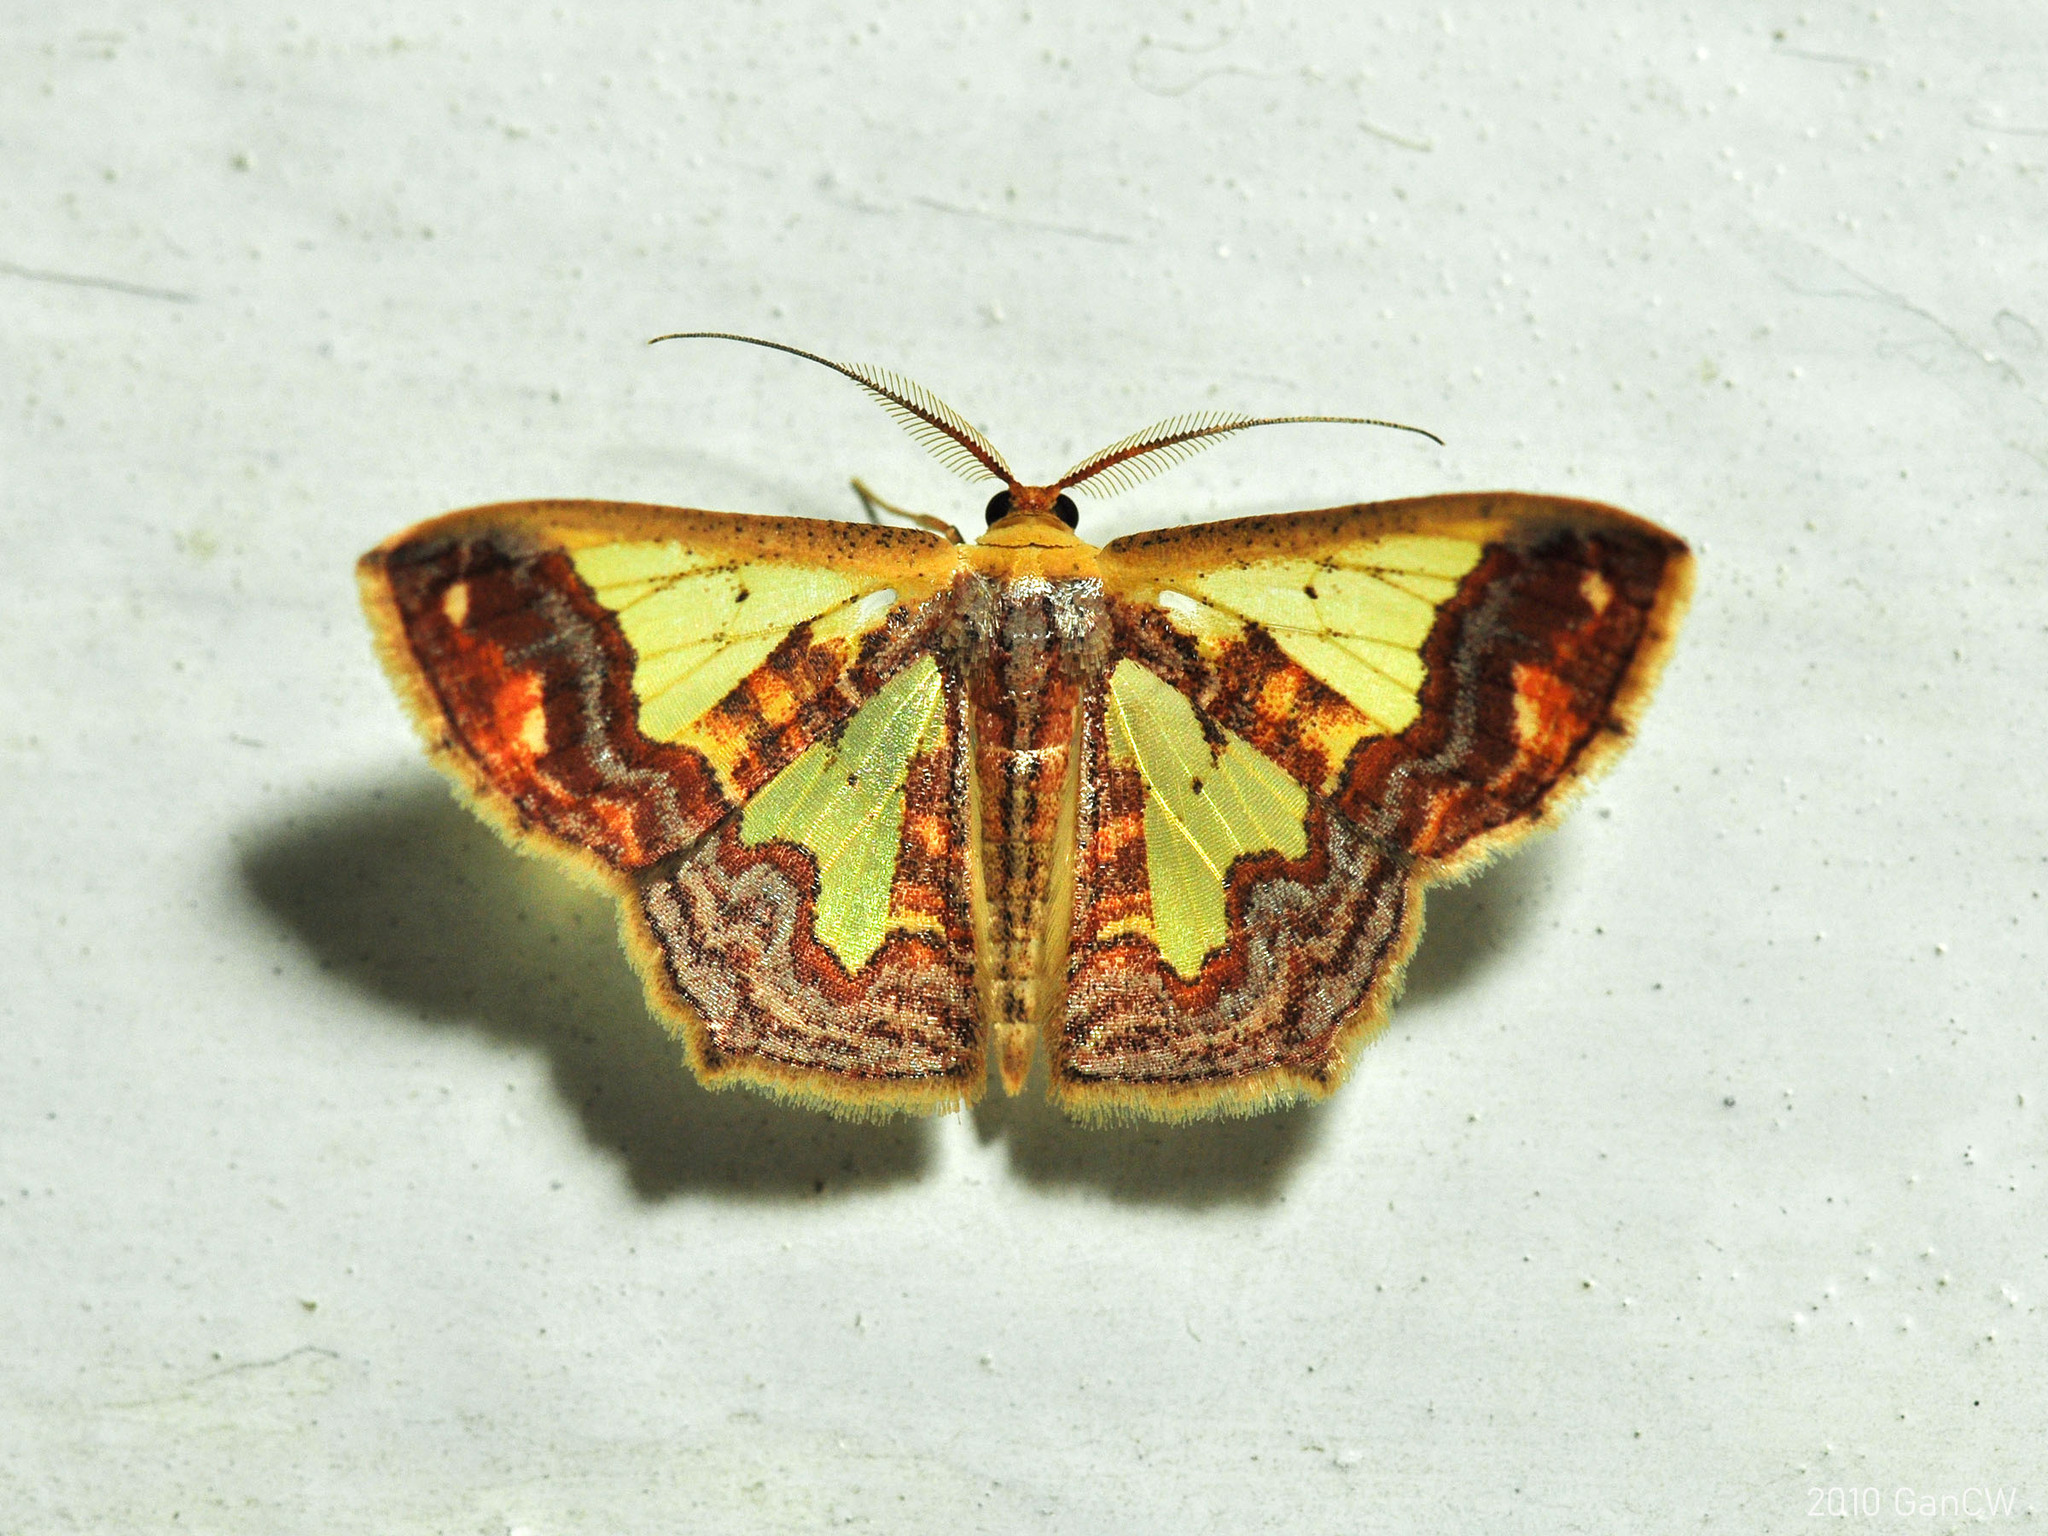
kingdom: Animalia
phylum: Arthropoda
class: Insecta
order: Lepidoptera
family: Geometridae
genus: Peratophyga
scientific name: Peratophyga xanthyala
